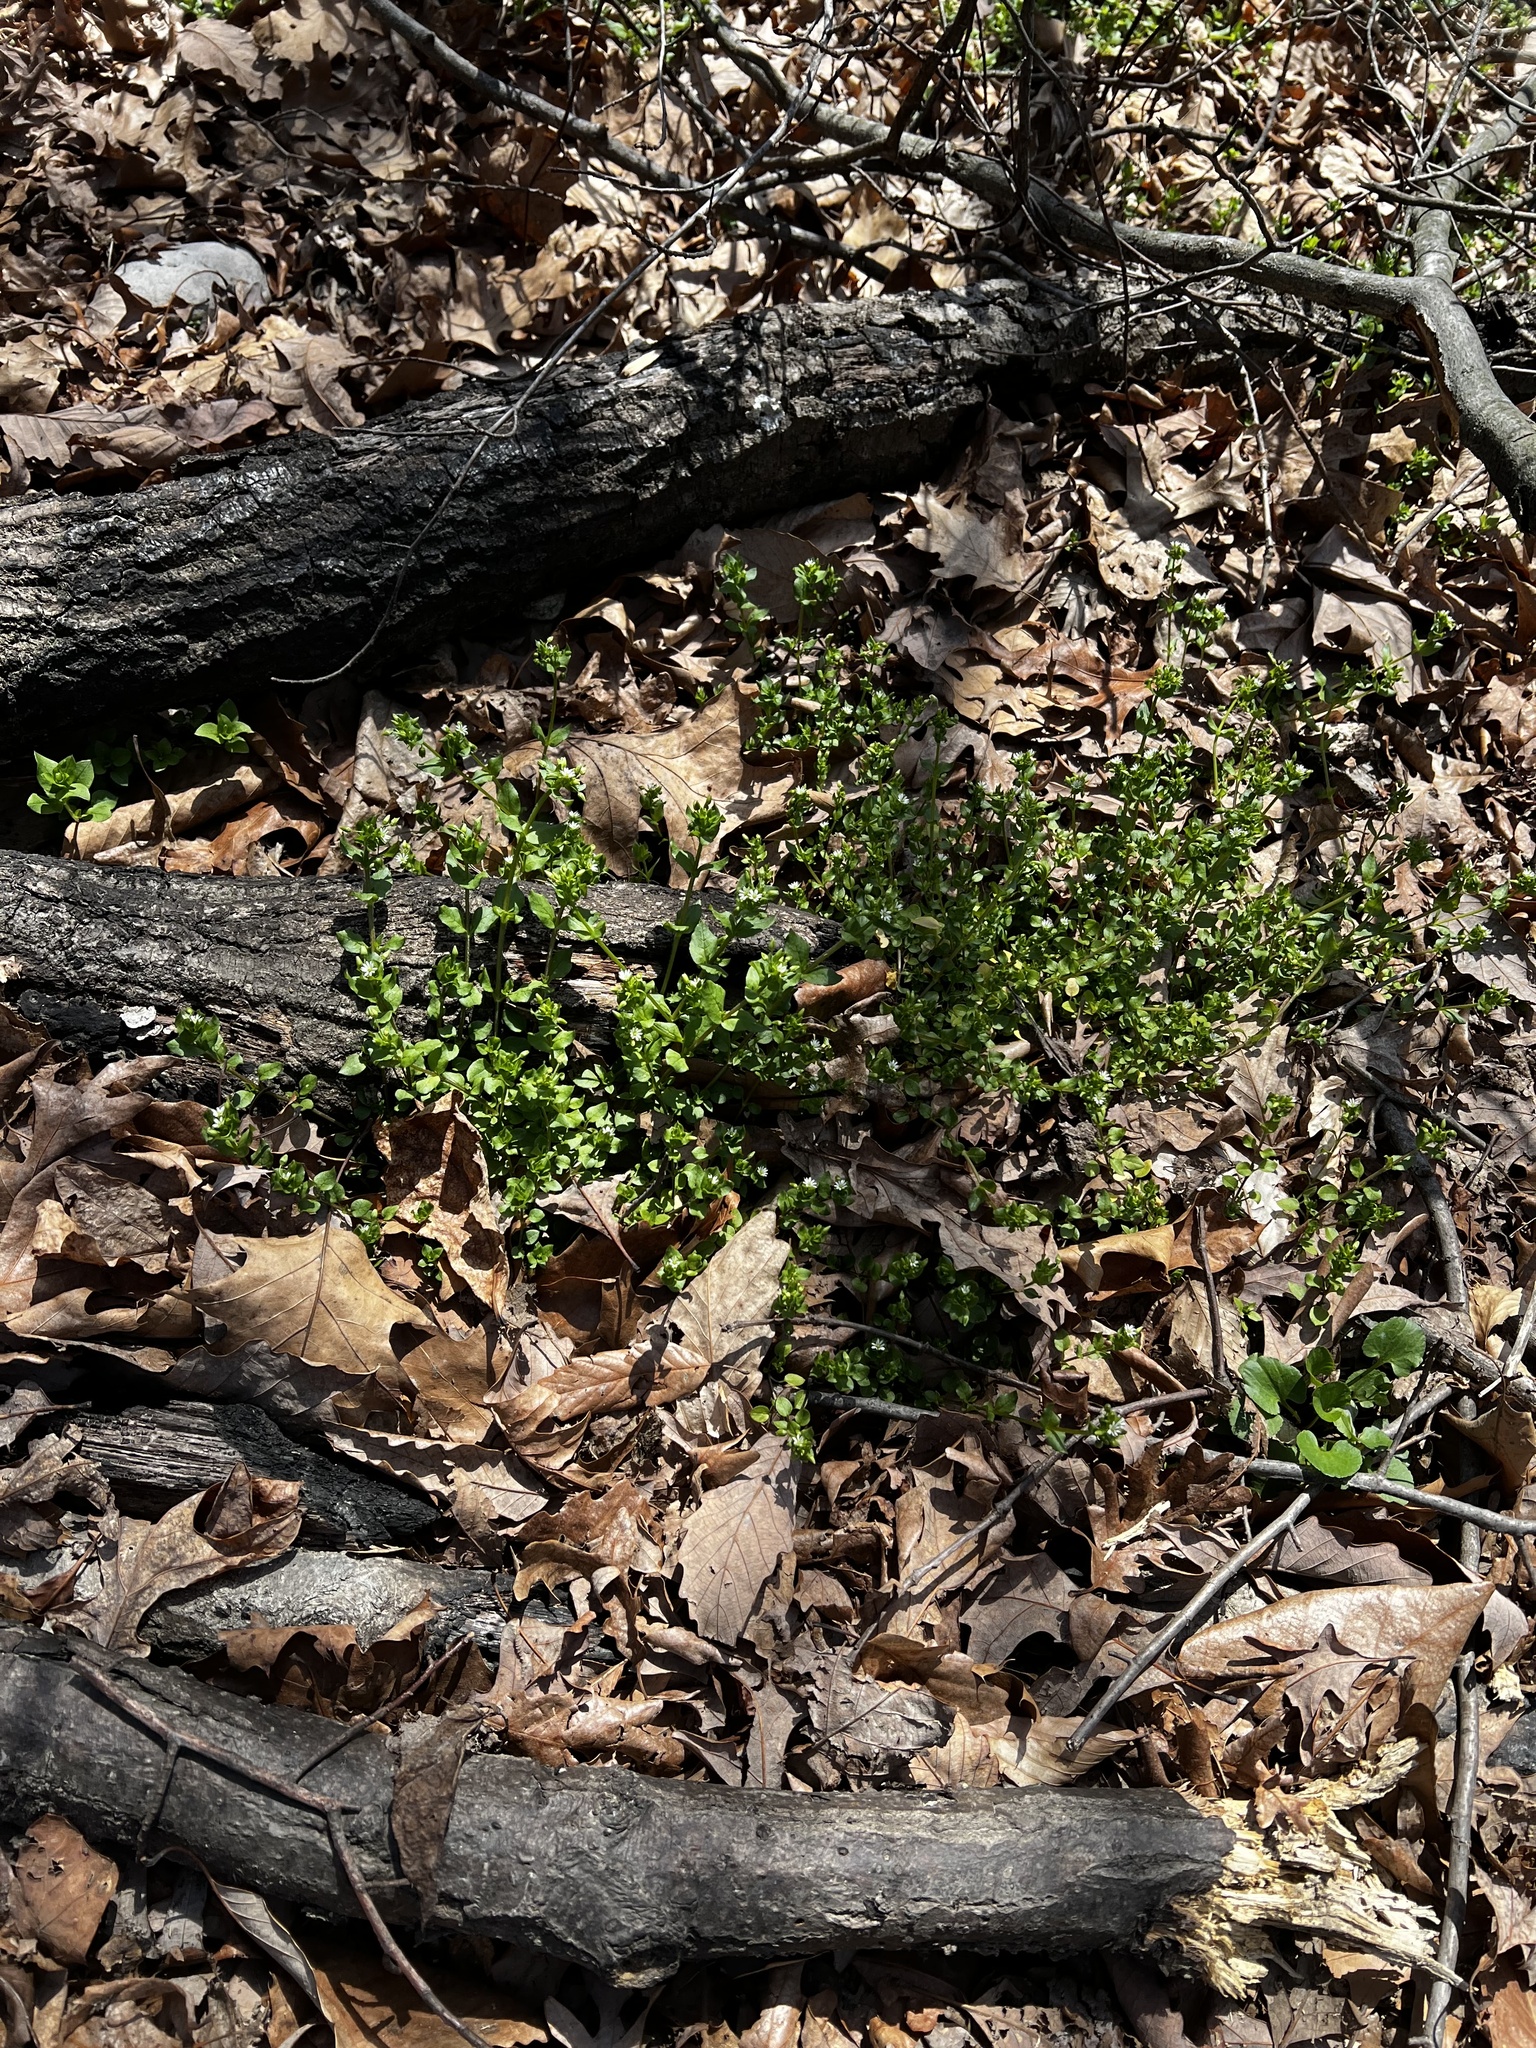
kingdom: Plantae
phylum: Tracheophyta
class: Magnoliopsida
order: Caryophyllales
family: Caryophyllaceae
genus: Stellaria
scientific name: Stellaria media
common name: Common chickweed
